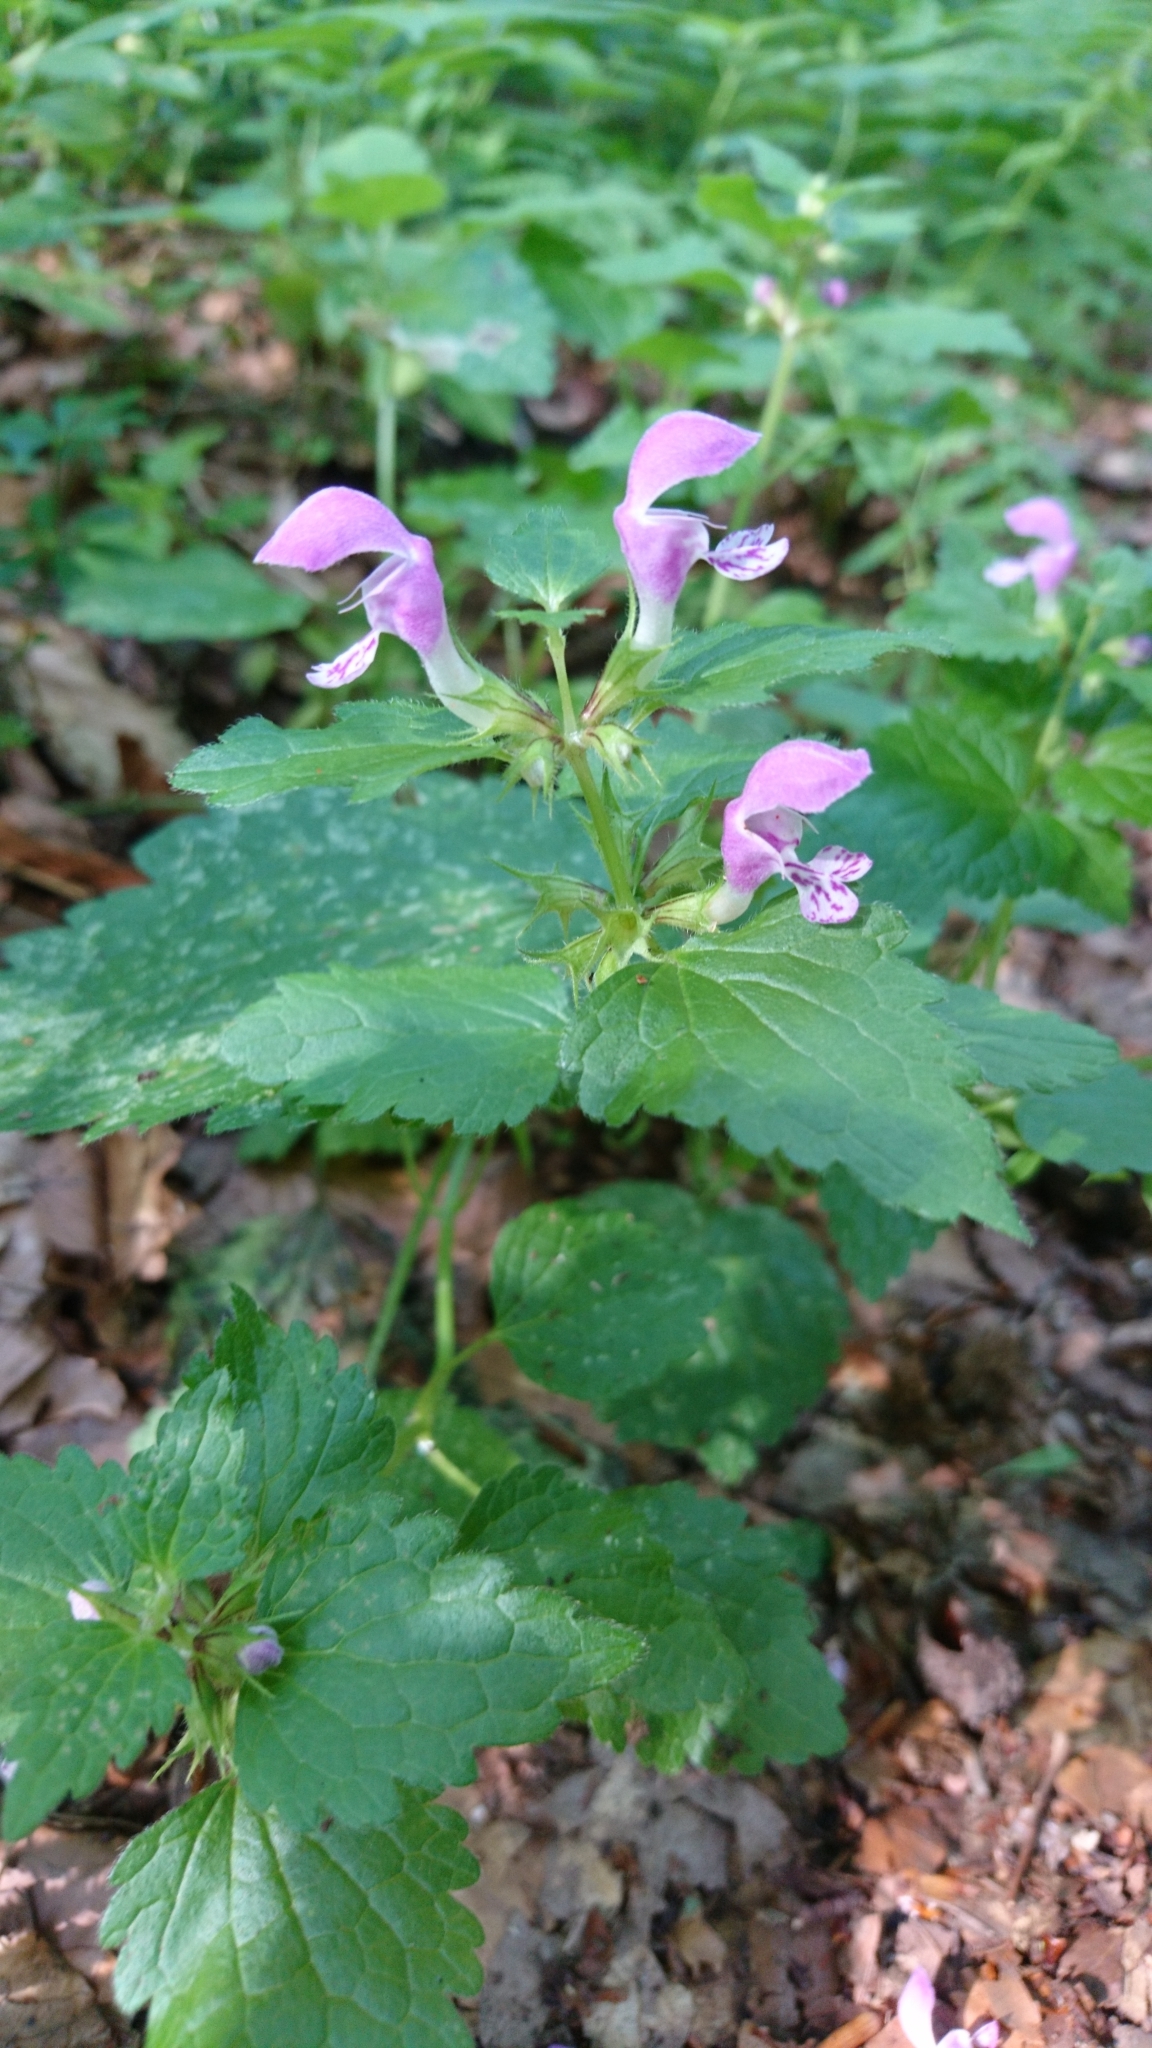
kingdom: Plantae
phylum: Tracheophyta
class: Magnoliopsida
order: Lamiales
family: Lamiaceae
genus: Lamium
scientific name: Lamium maculatum
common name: Spotted dead-nettle
